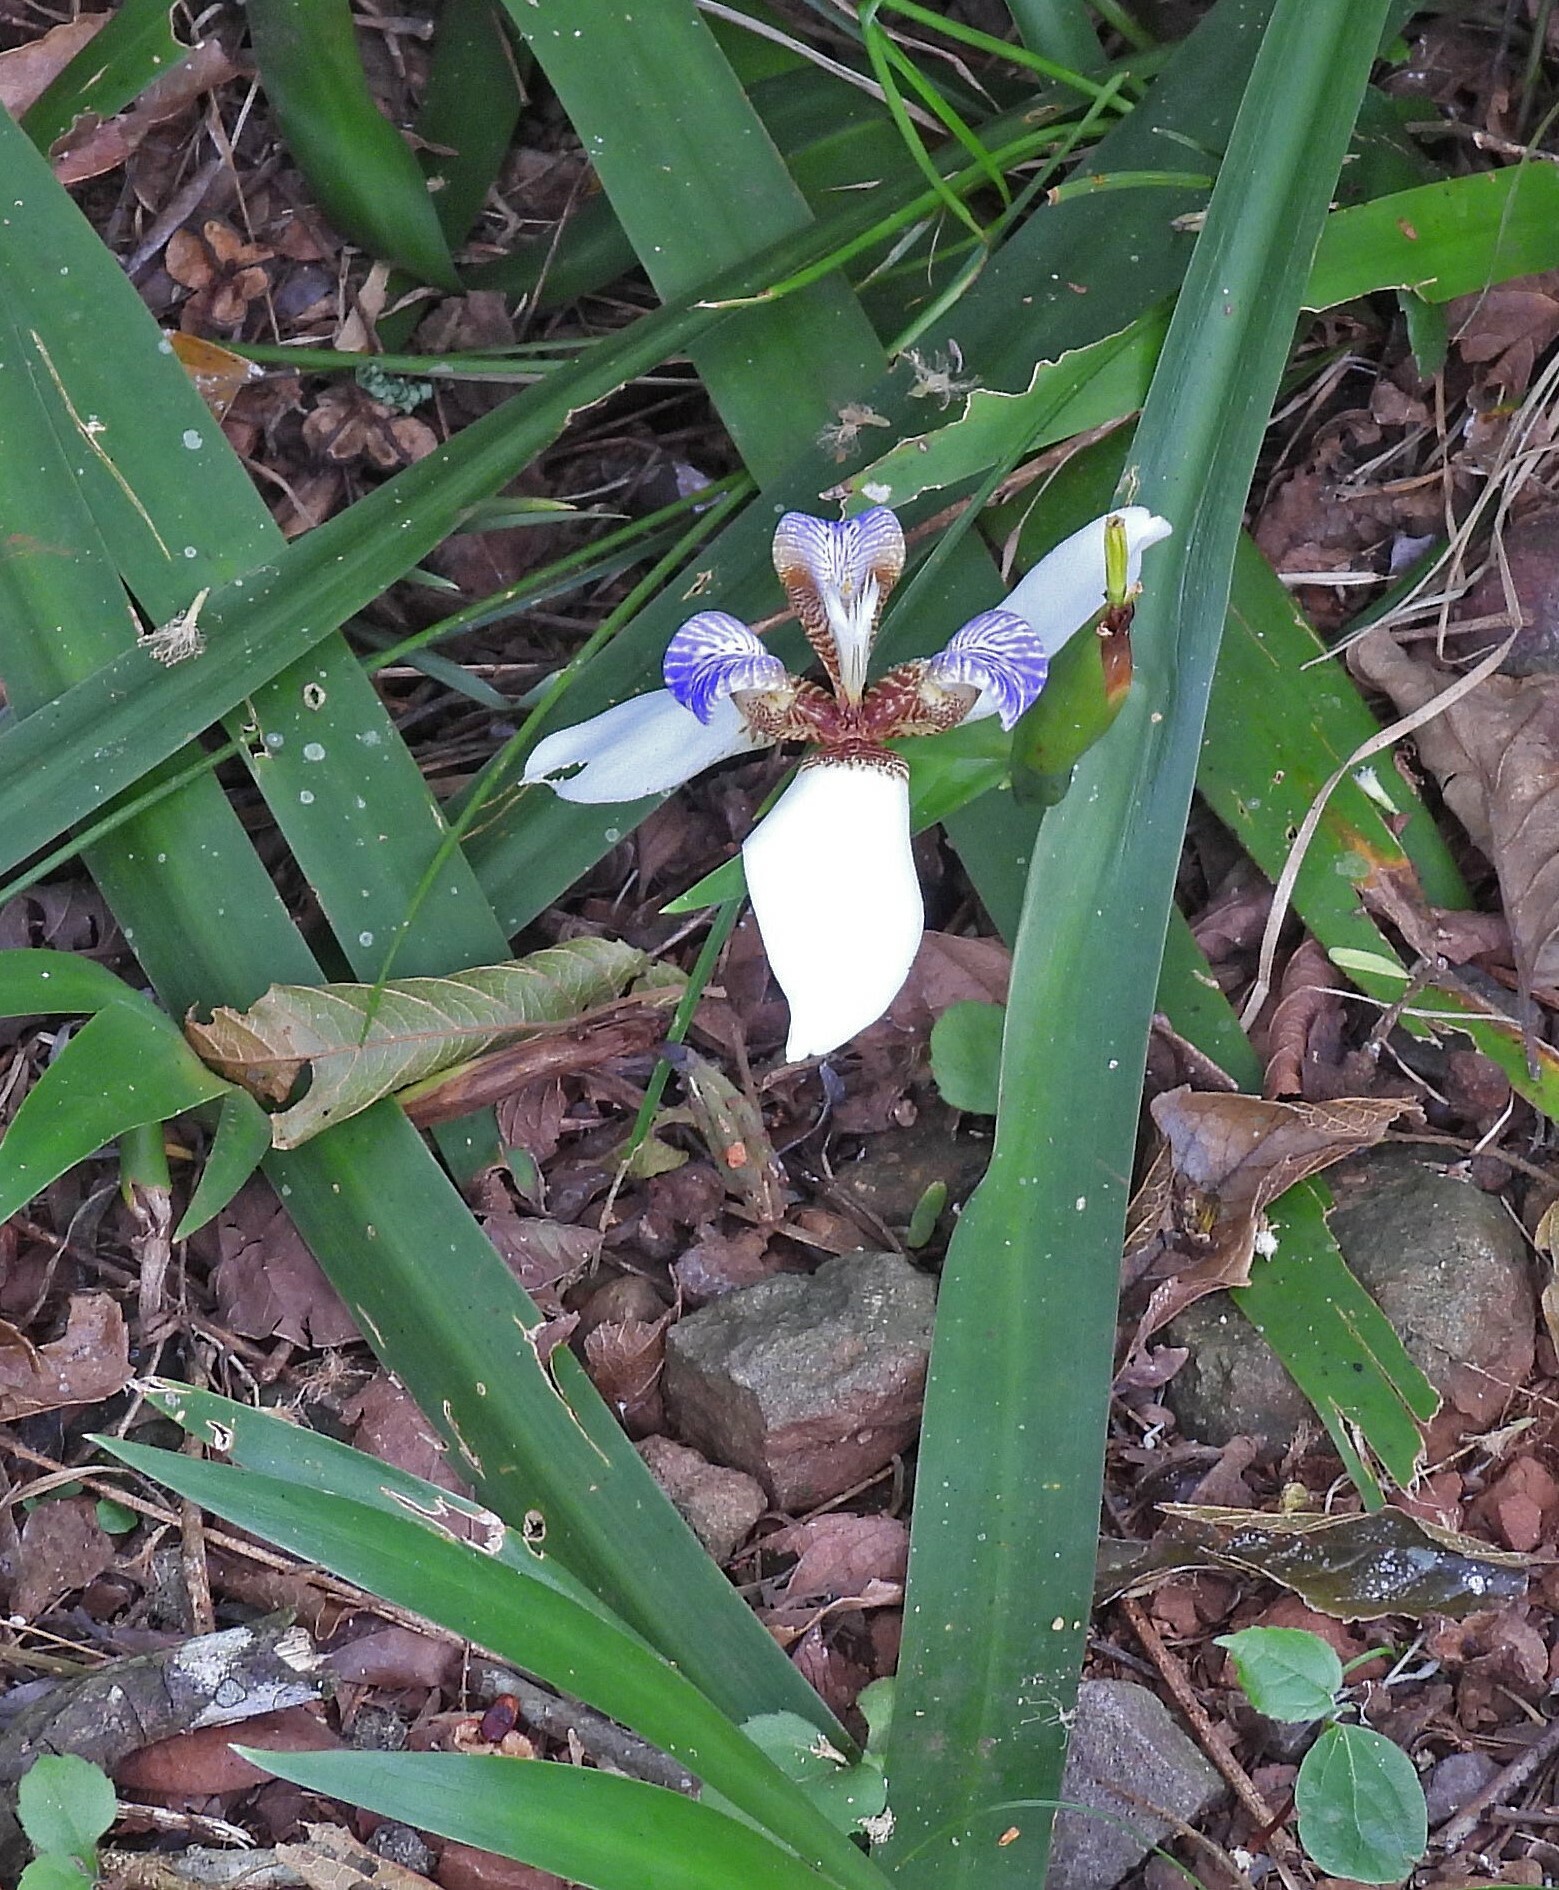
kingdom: Plantae
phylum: Tracheophyta
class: Liliopsida
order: Asparagales
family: Iridaceae
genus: Trimezia
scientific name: Trimezia candida
